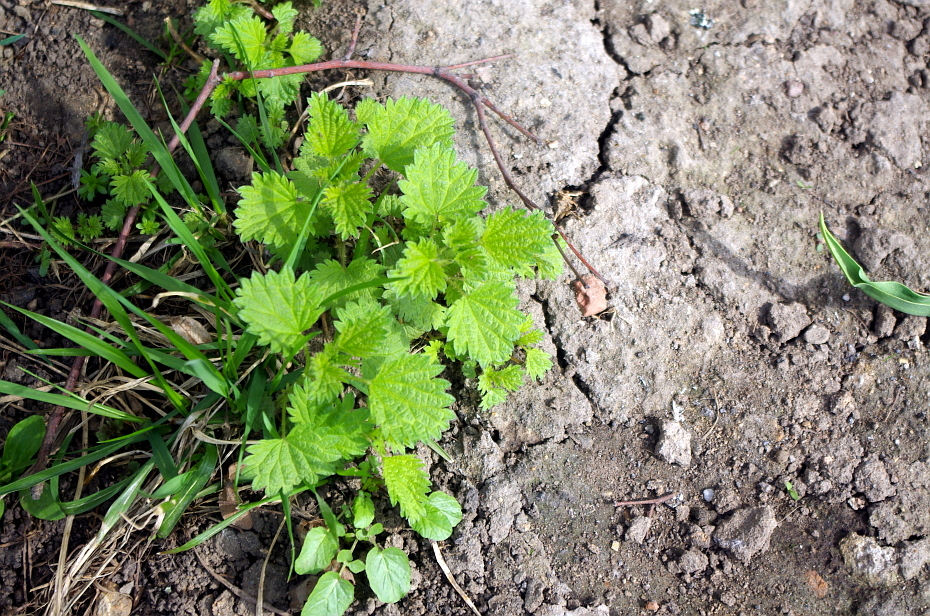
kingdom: Plantae
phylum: Tracheophyta
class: Magnoliopsida
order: Rosales
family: Urticaceae
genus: Urtica
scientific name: Urtica dioica
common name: Common nettle
